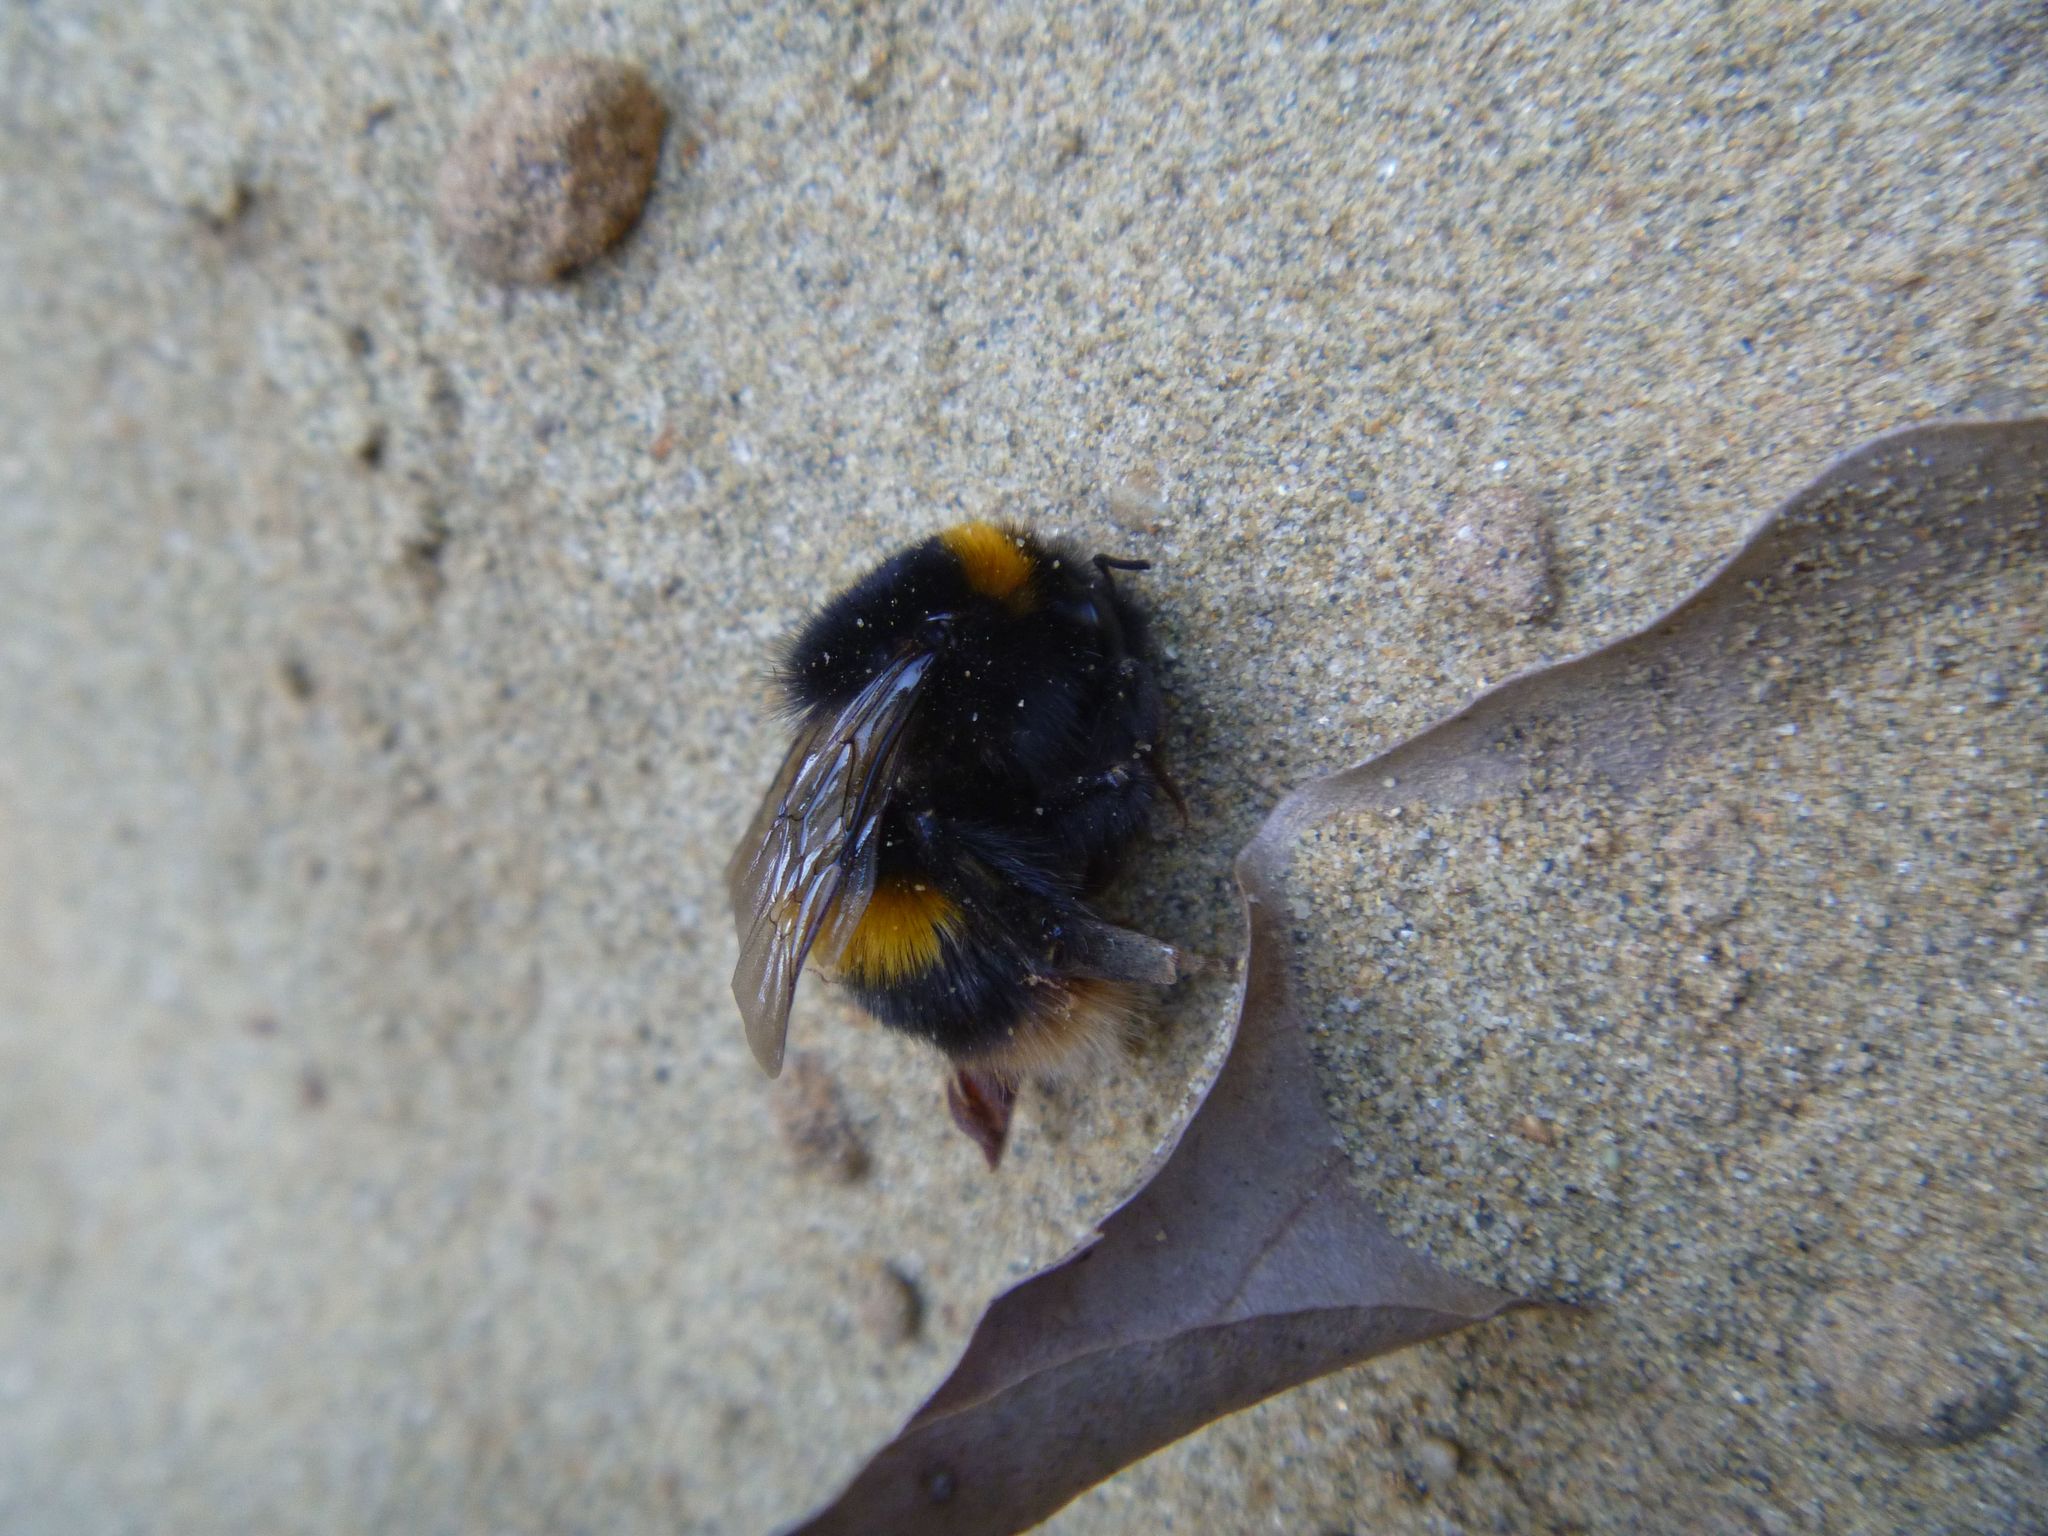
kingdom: Animalia
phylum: Arthropoda
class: Insecta
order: Hymenoptera
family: Apidae
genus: Bombus
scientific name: Bombus terrestris
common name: Buff-tailed bumblebee
